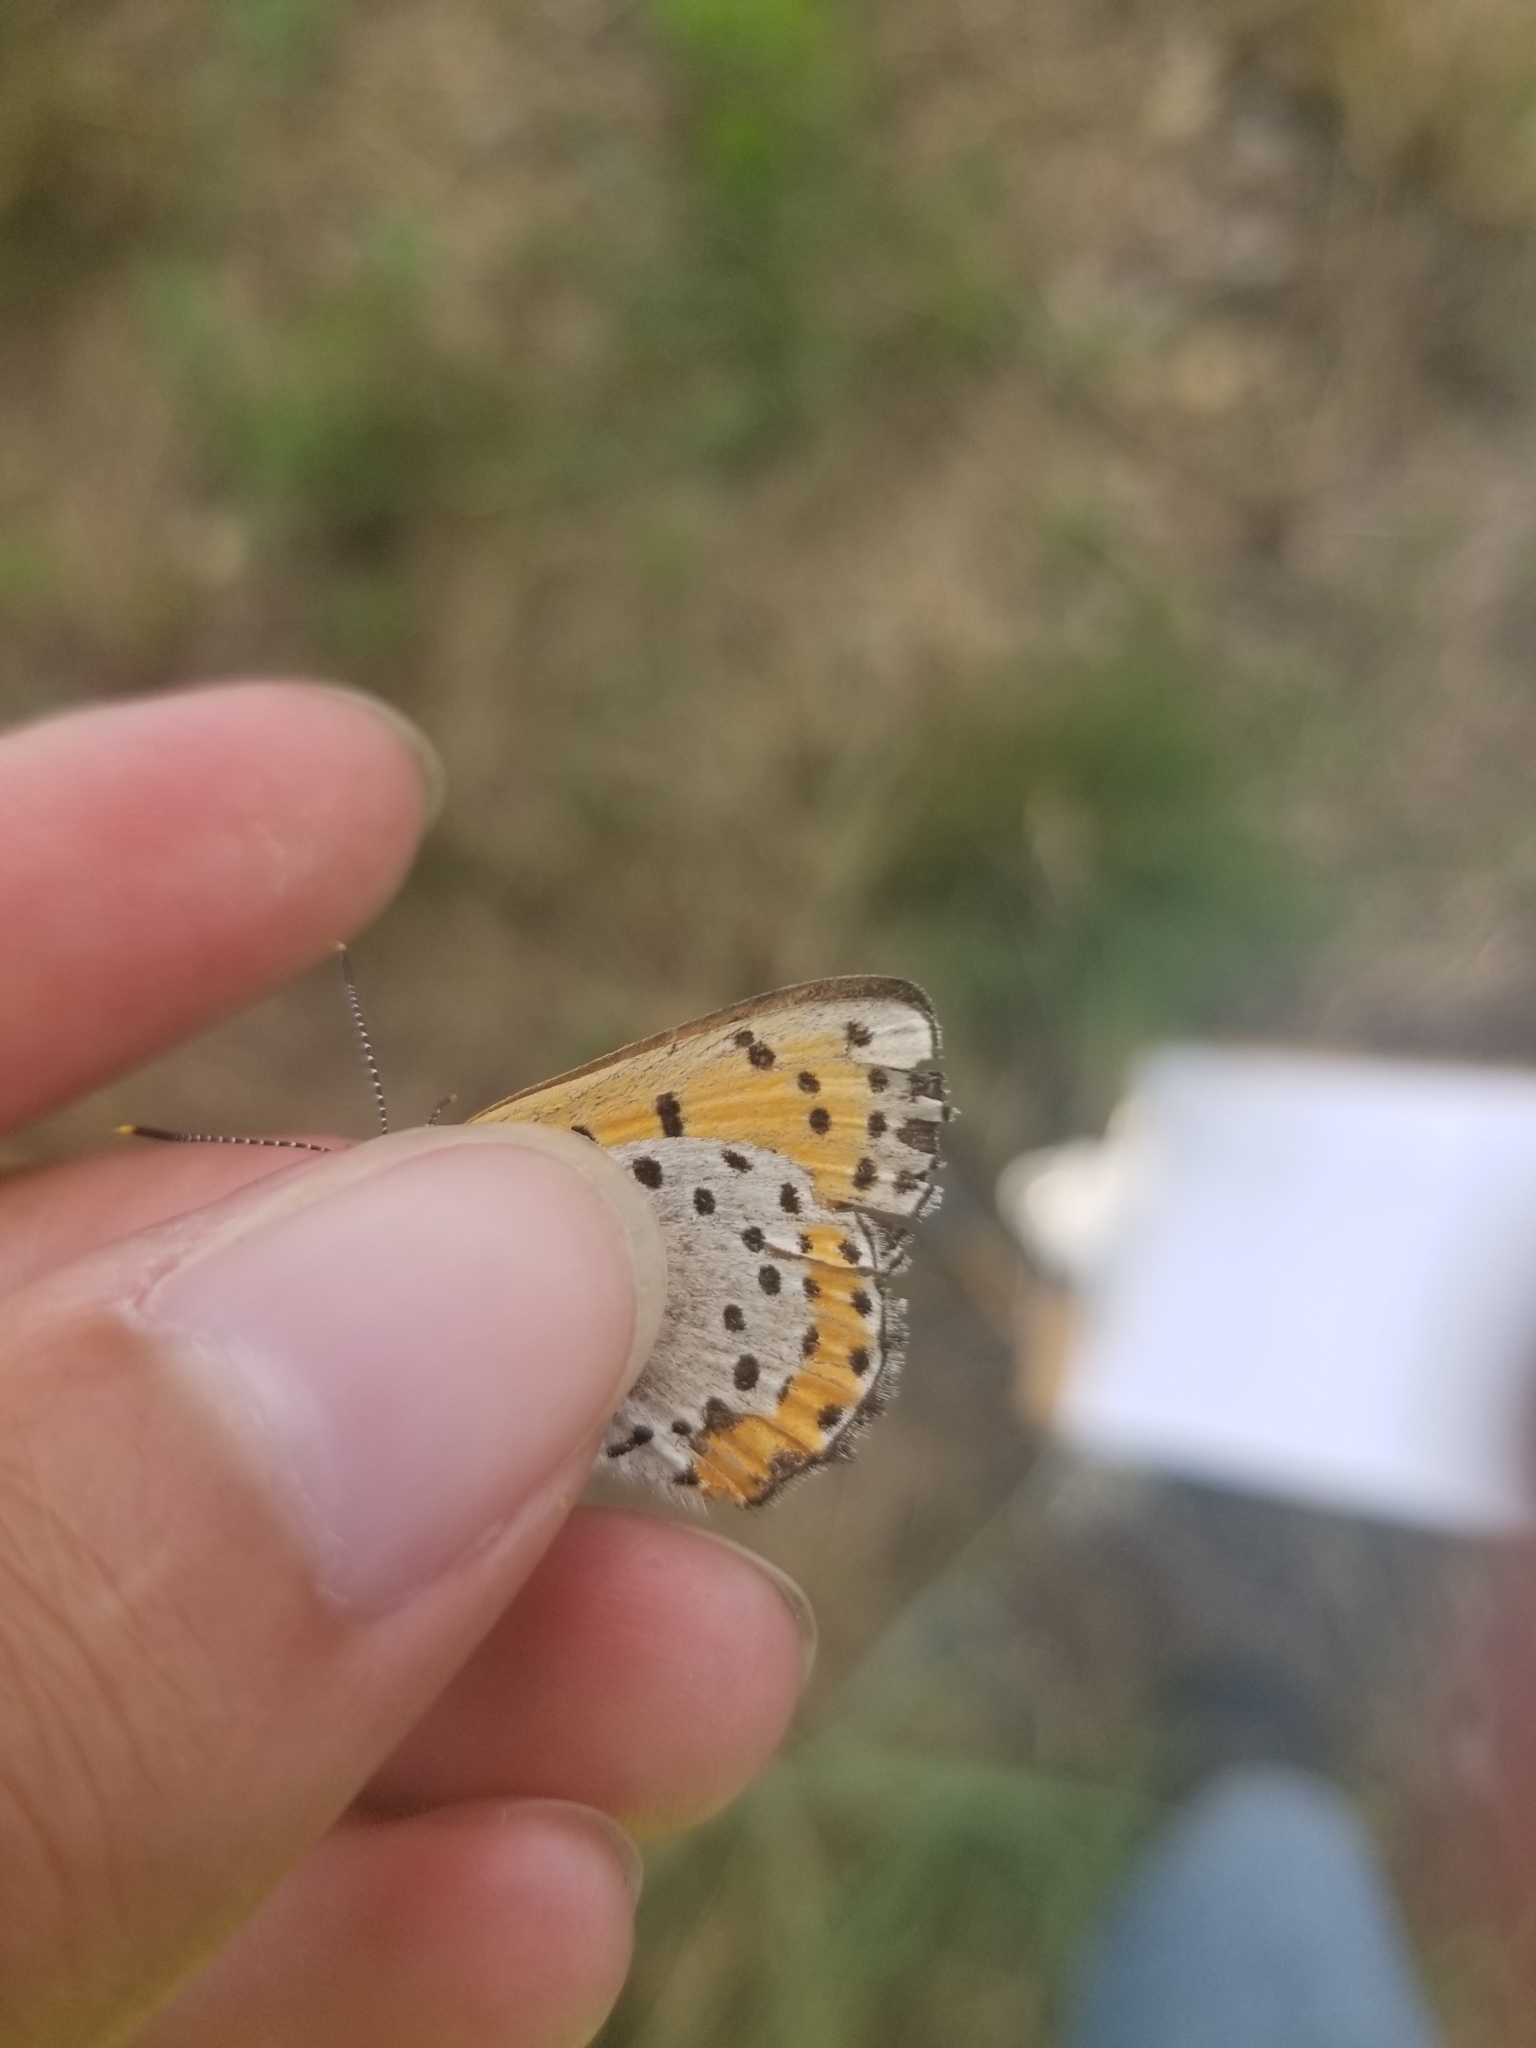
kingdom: Animalia
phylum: Arthropoda
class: Insecta
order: Lepidoptera
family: Lycaenidae
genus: Tharsalea
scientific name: Tharsalea hyllus
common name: Bronze copper
